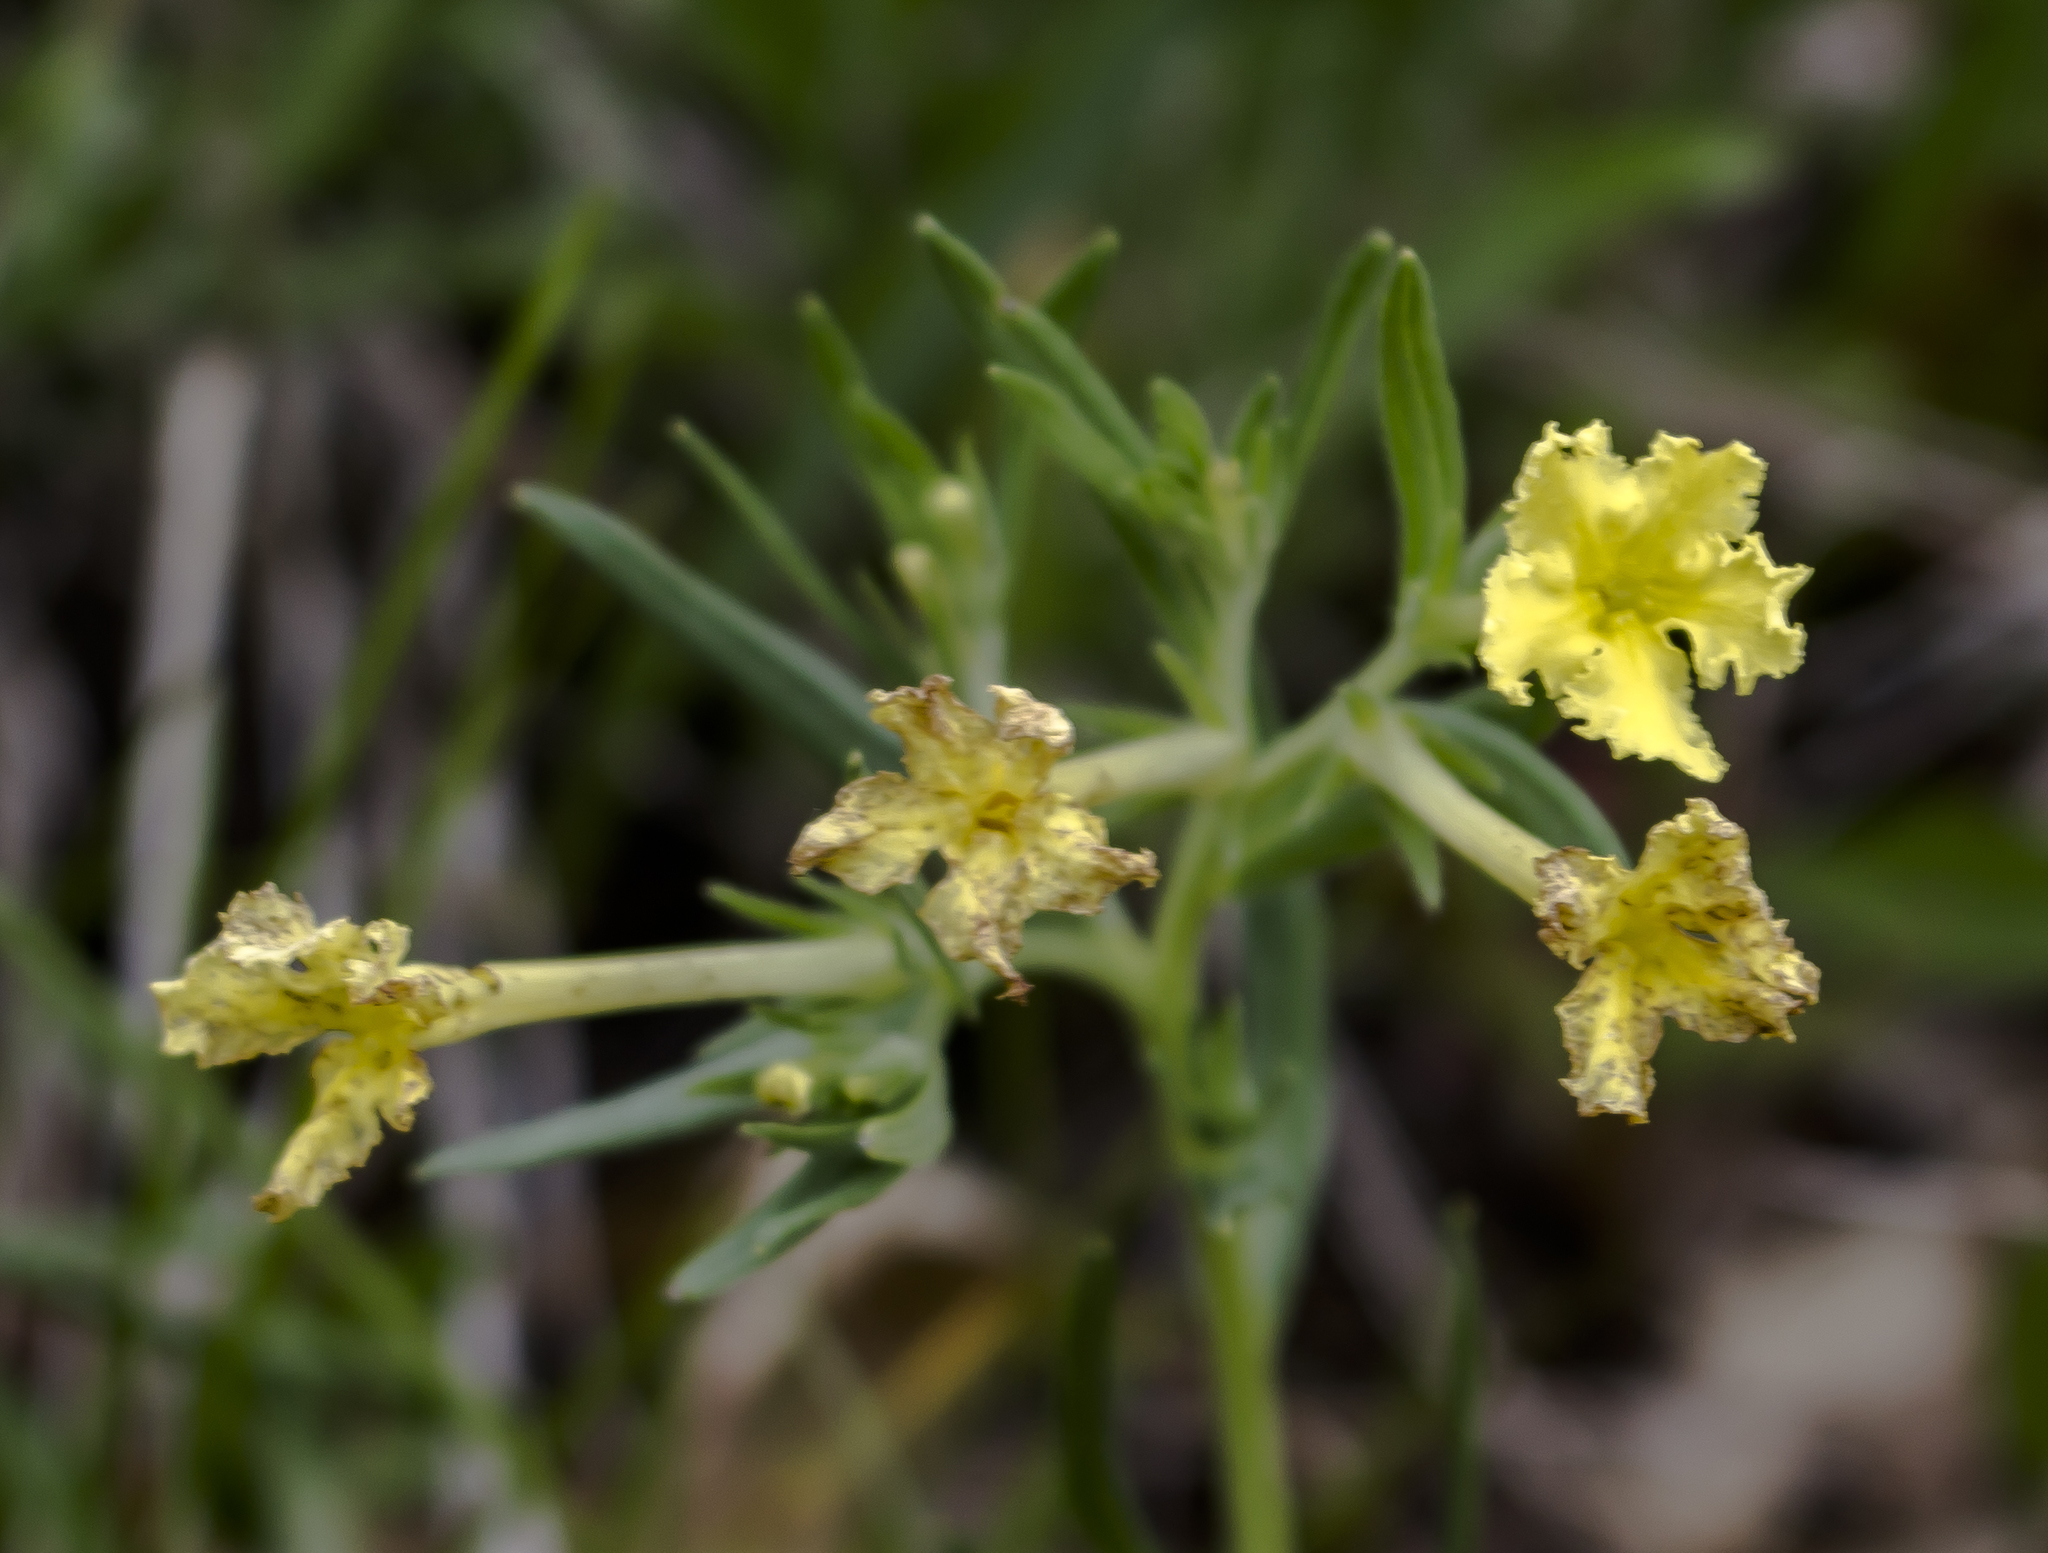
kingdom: Plantae
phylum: Tracheophyta
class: Magnoliopsida
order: Boraginales
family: Boraginaceae
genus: Lithospermum
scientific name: Lithospermum incisum
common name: Fringed gromwell
